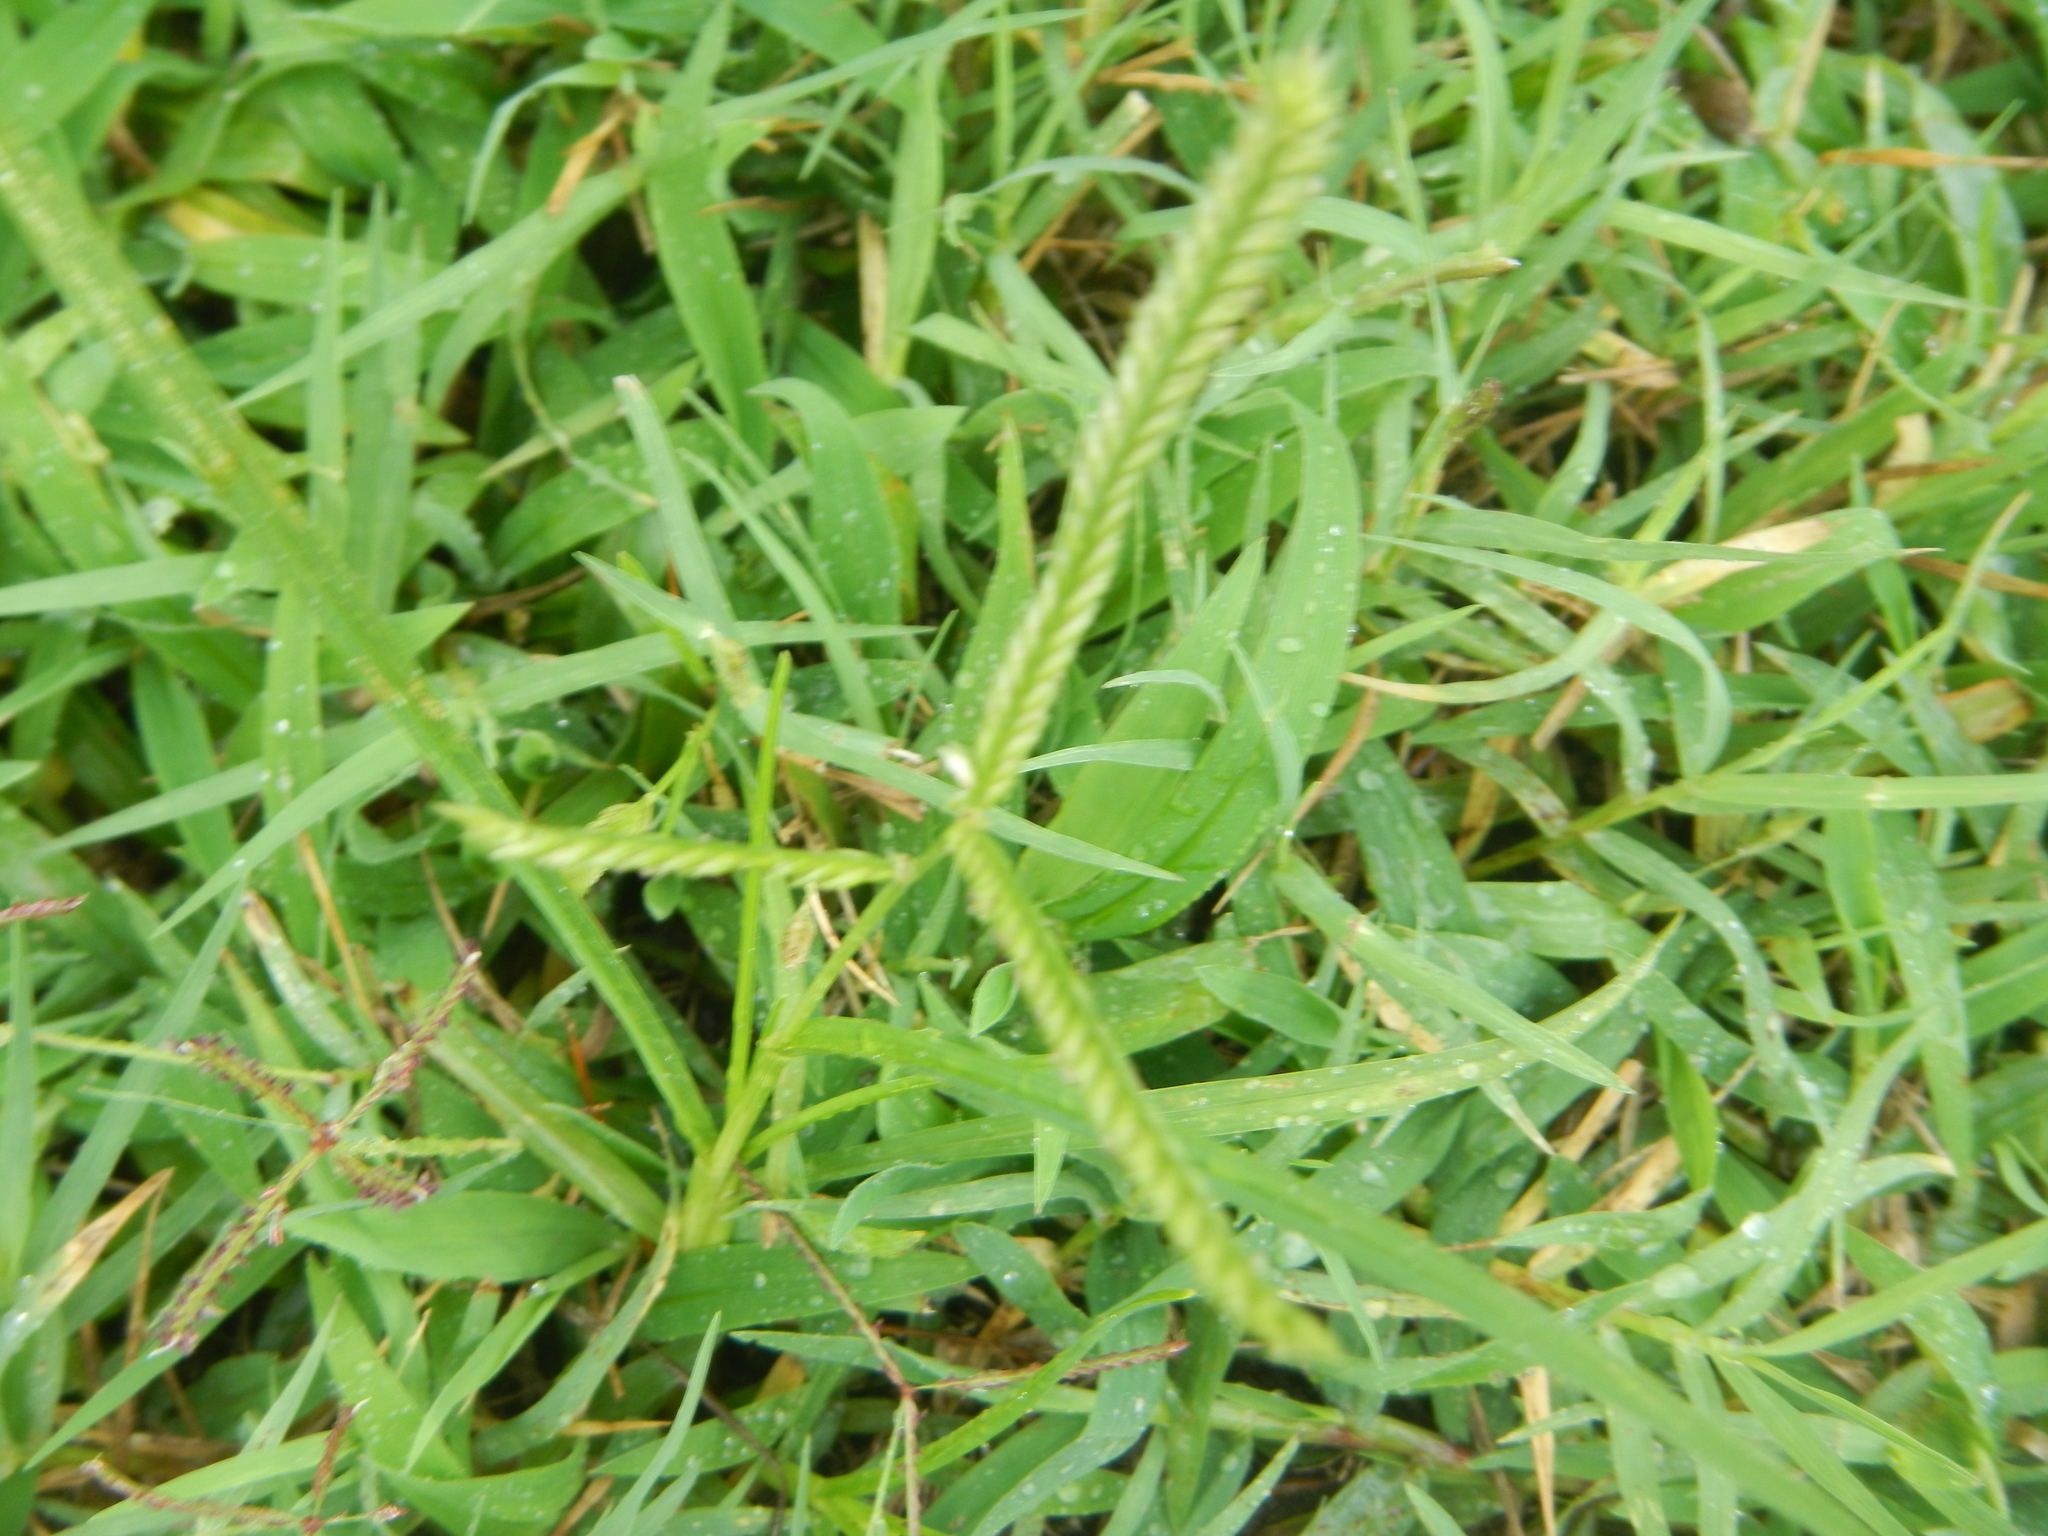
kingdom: Plantae
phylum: Tracheophyta
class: Liliopsida
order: Poales
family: Poaceae
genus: Eleusine
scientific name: Eleusine indica
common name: Yard-grass
